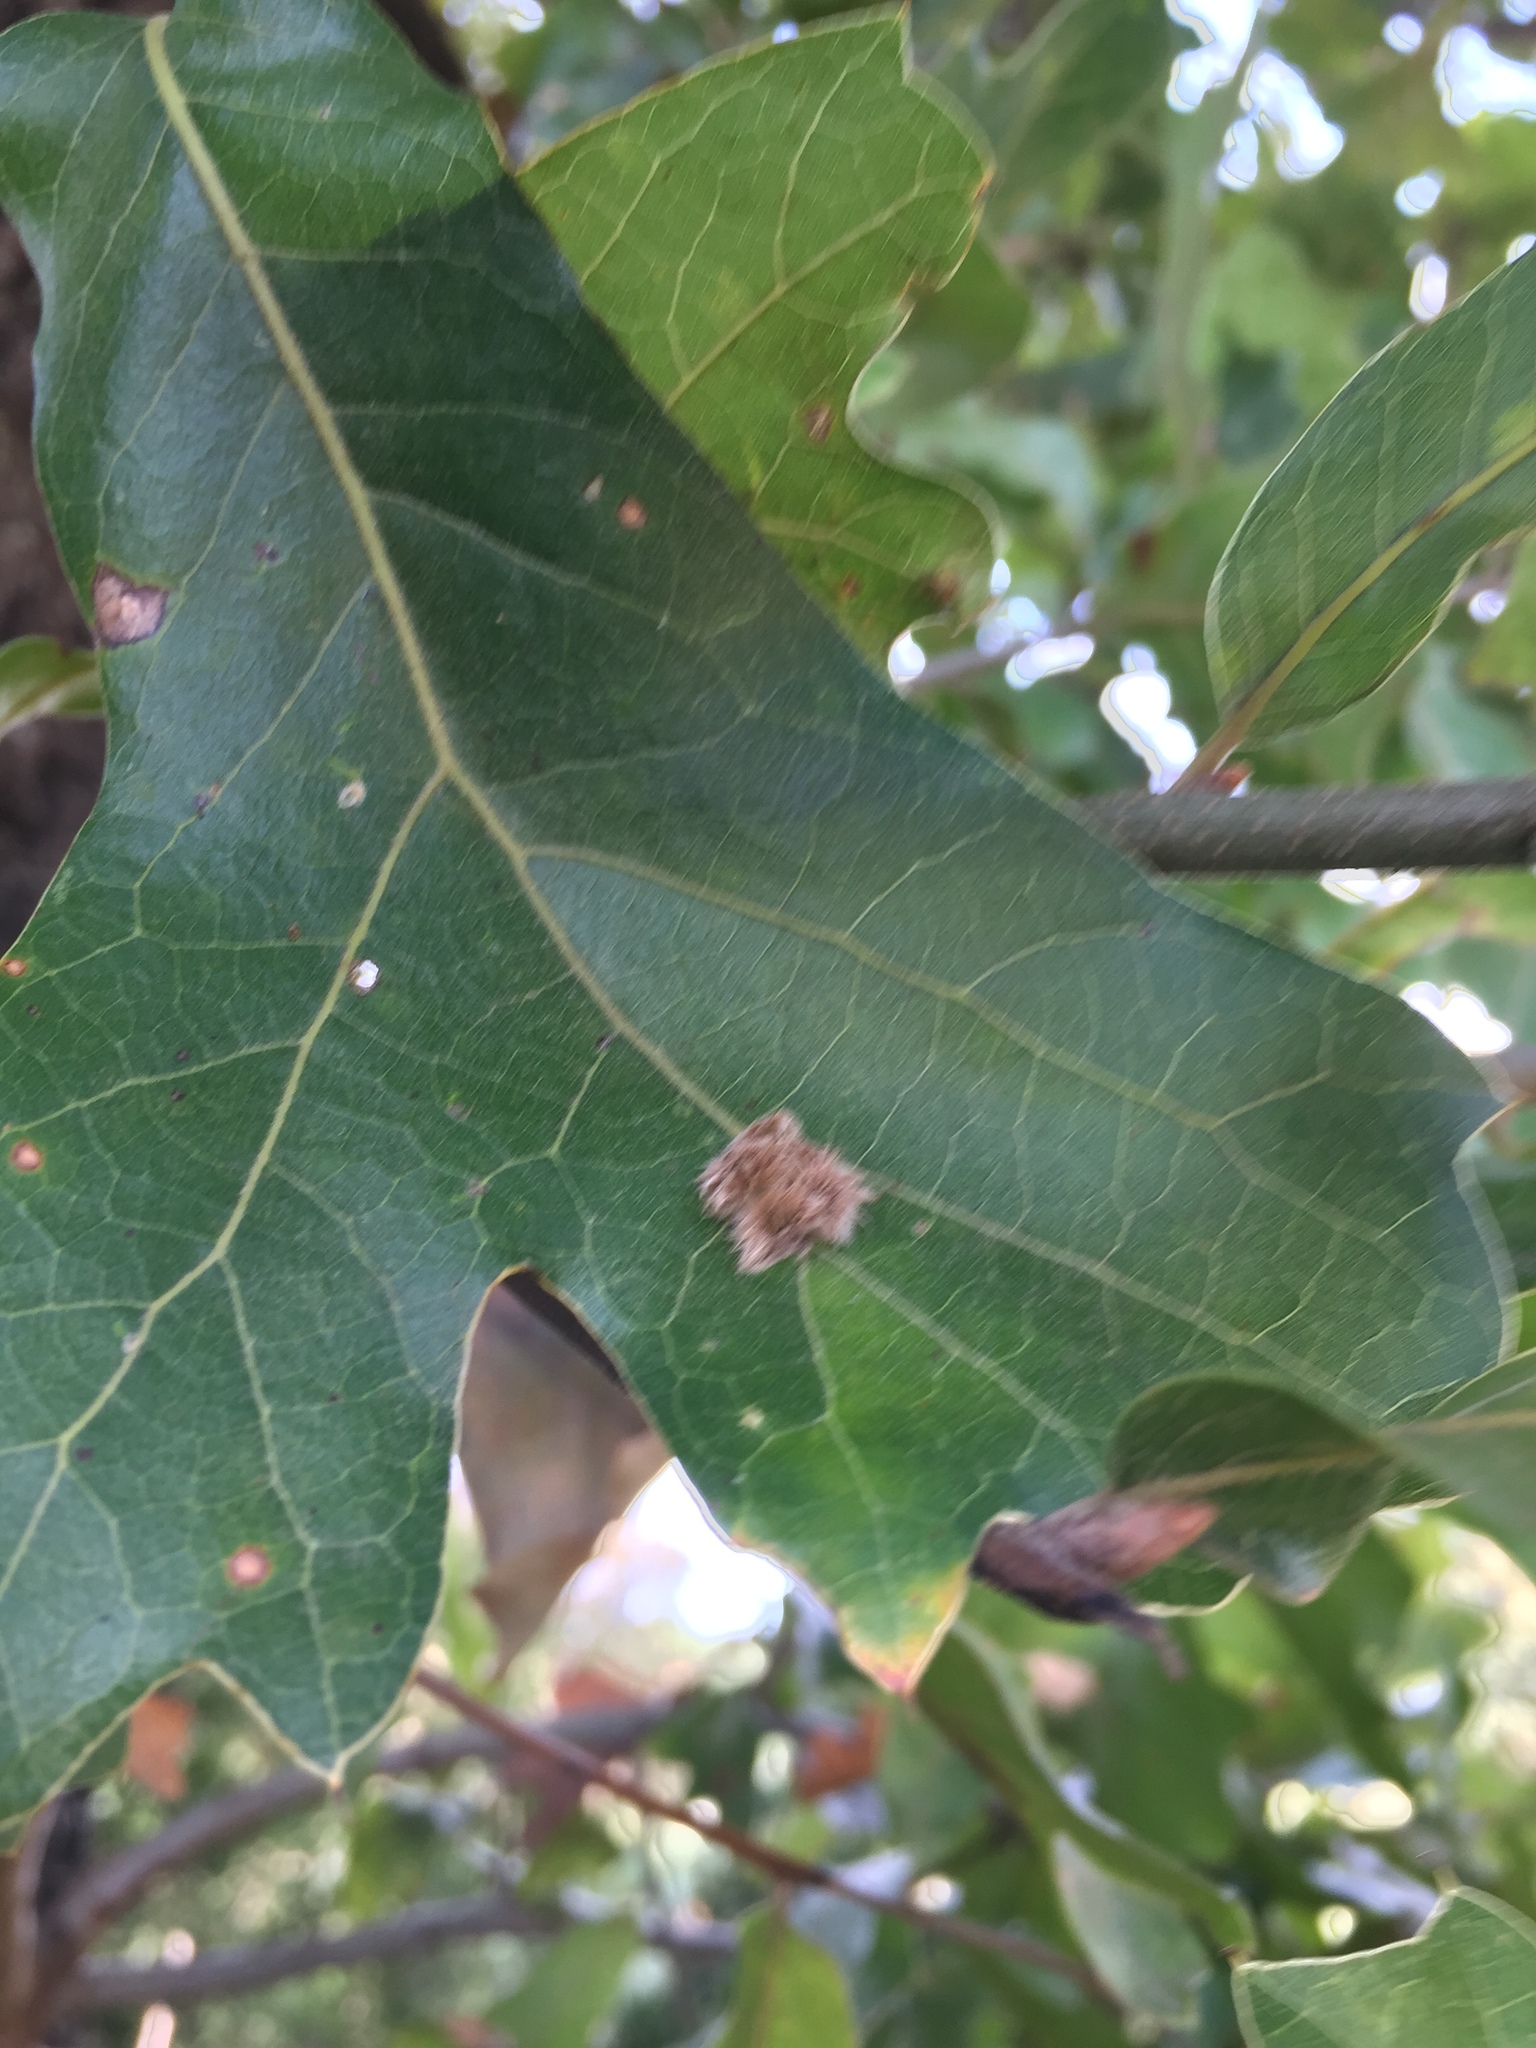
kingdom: Animalia
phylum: Arthropoda
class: Insecta
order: Hymenoptera
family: Cynipidae
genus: Callirhytis
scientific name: Callirhytis
